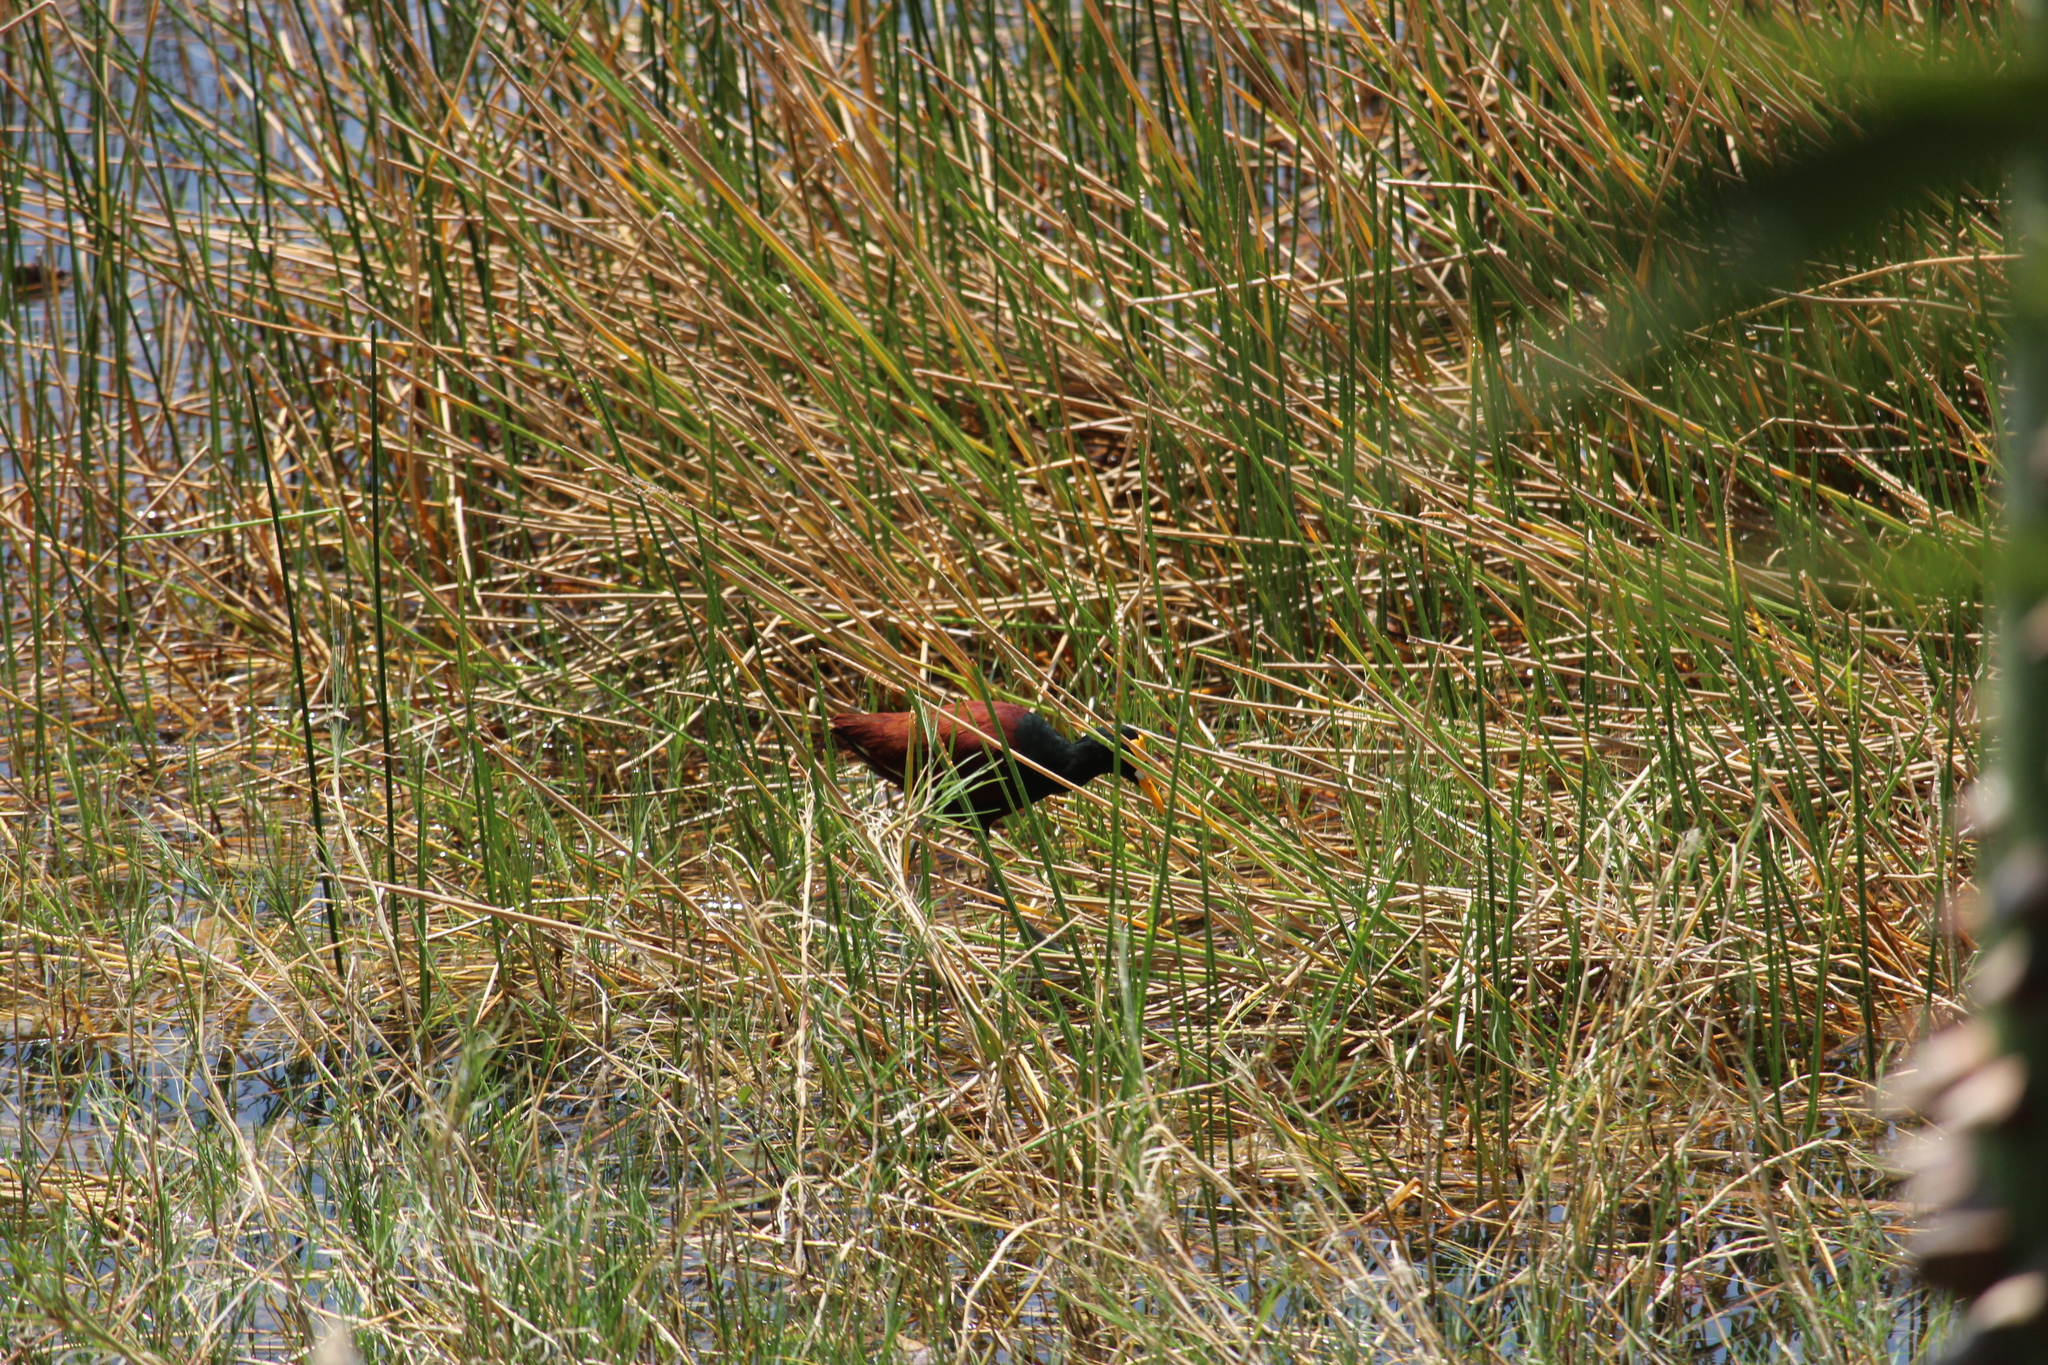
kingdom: Animalia
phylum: Chordata
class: Aves
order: Charadriiformes
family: Jacanidae
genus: Jacana
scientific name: Jacana spinosa
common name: Northern jacana
